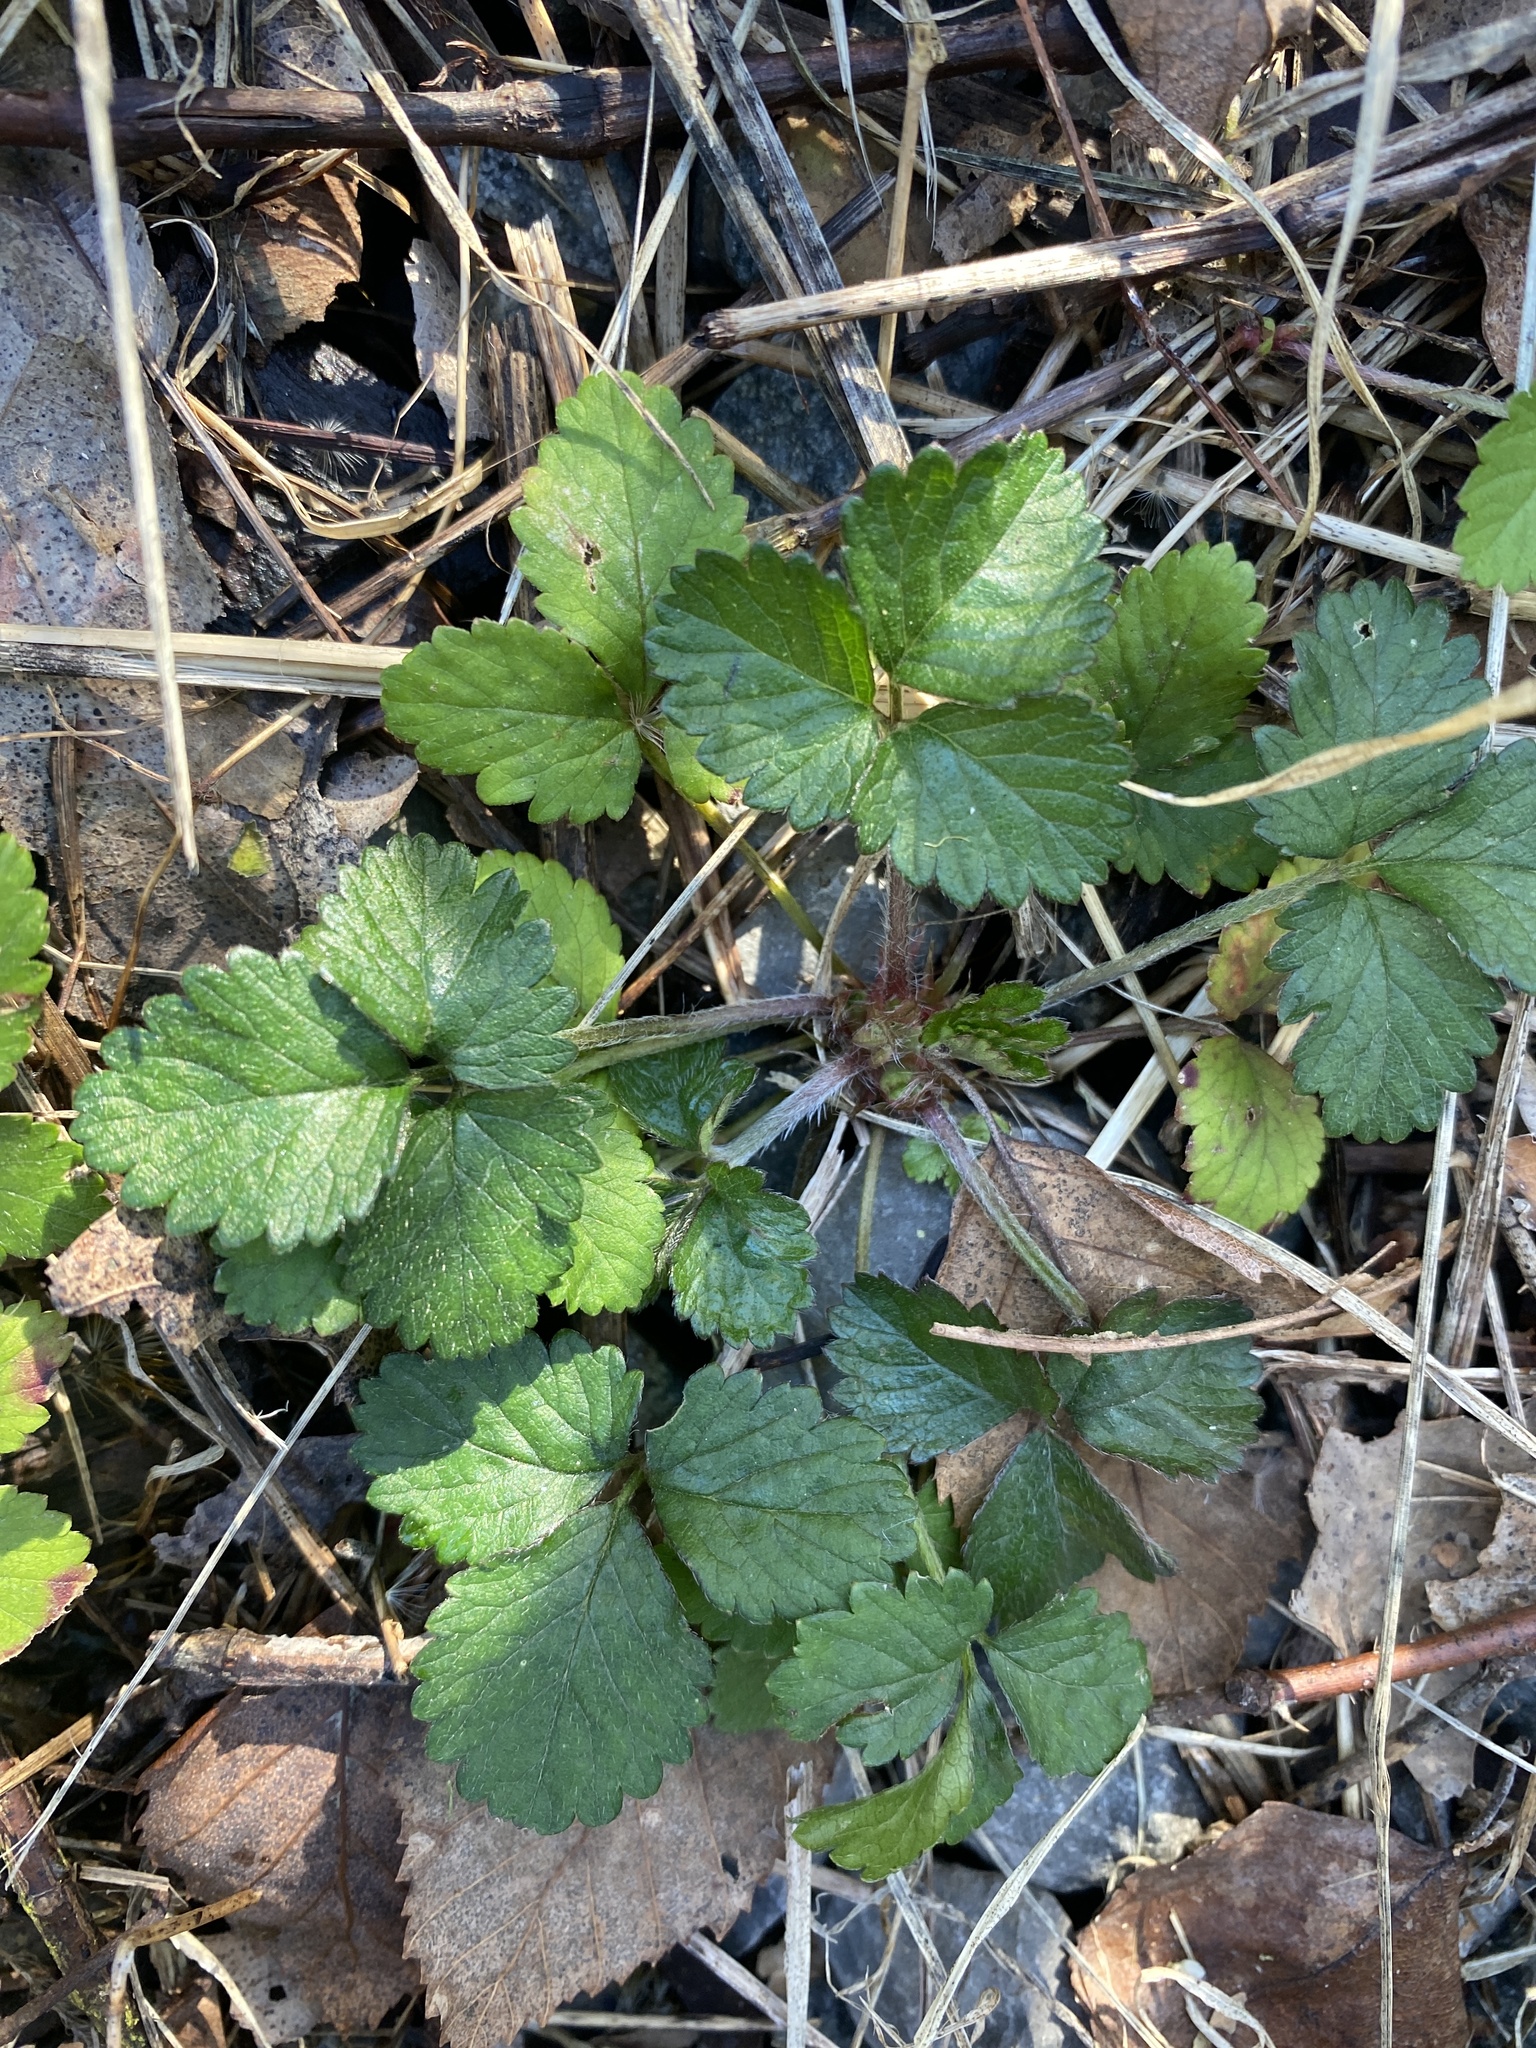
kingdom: Plantae
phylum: Tracheophyta
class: Magnoliopsida
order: Rosales
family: Rosaceae
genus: Potentilla
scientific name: Potentilla indica
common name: Yellow-flowered strawberry
